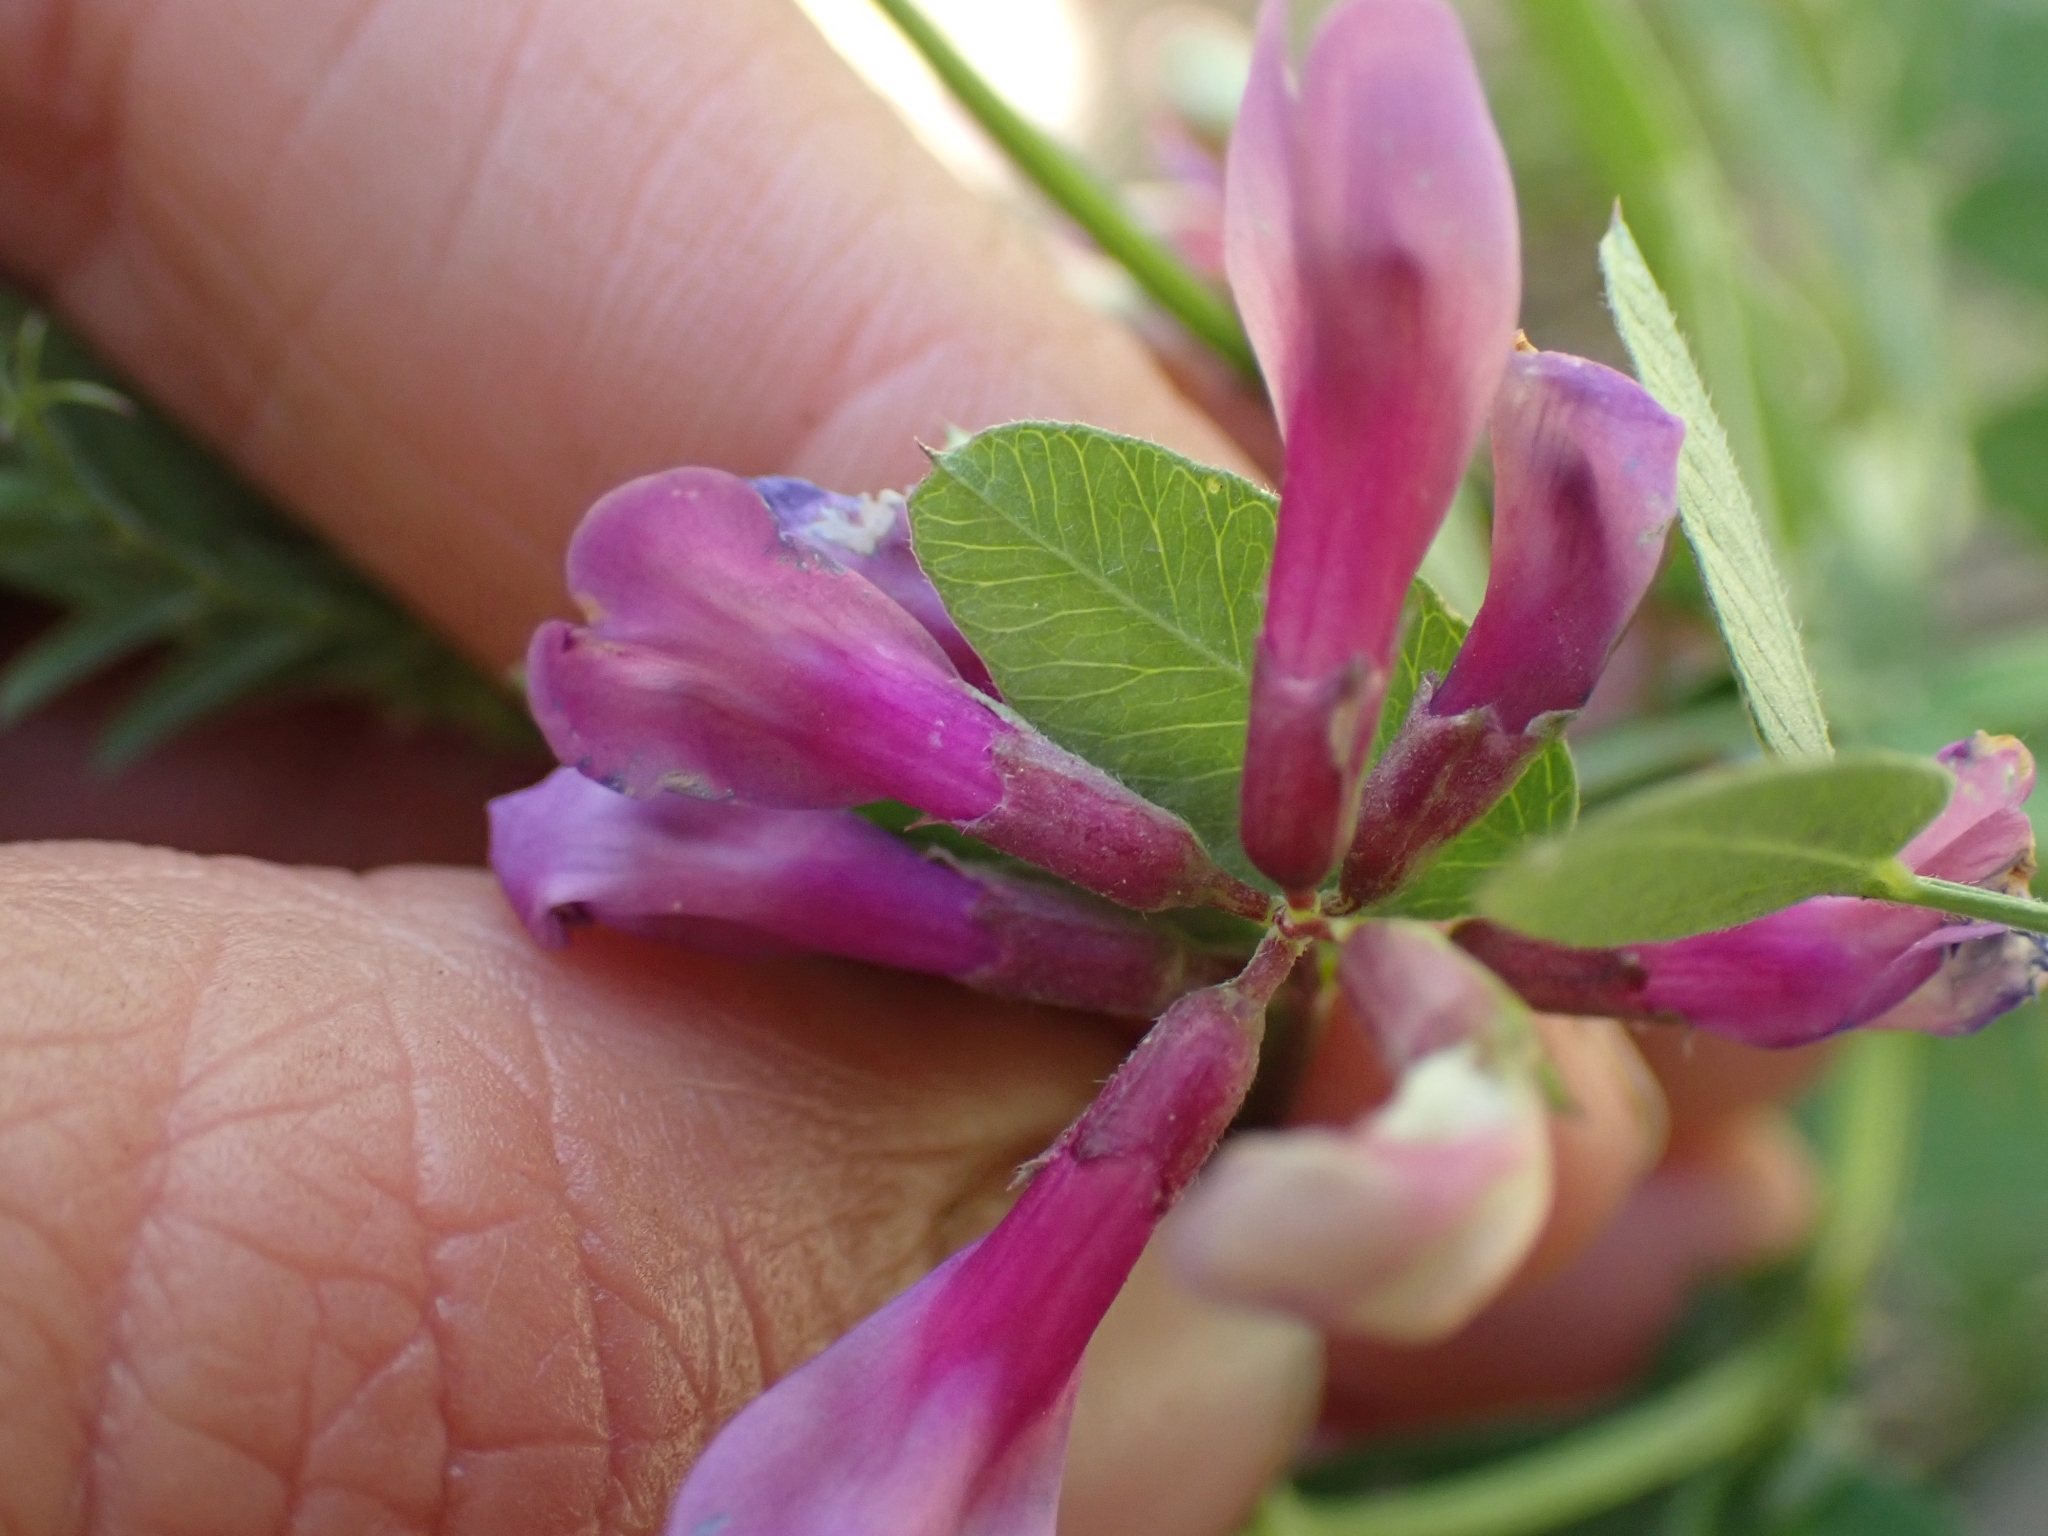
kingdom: Plantae
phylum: Tracheophyta
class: Magnoliopsida
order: Fabales
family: Fabaceae
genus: Vicia
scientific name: Vicia americana
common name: American vetch
